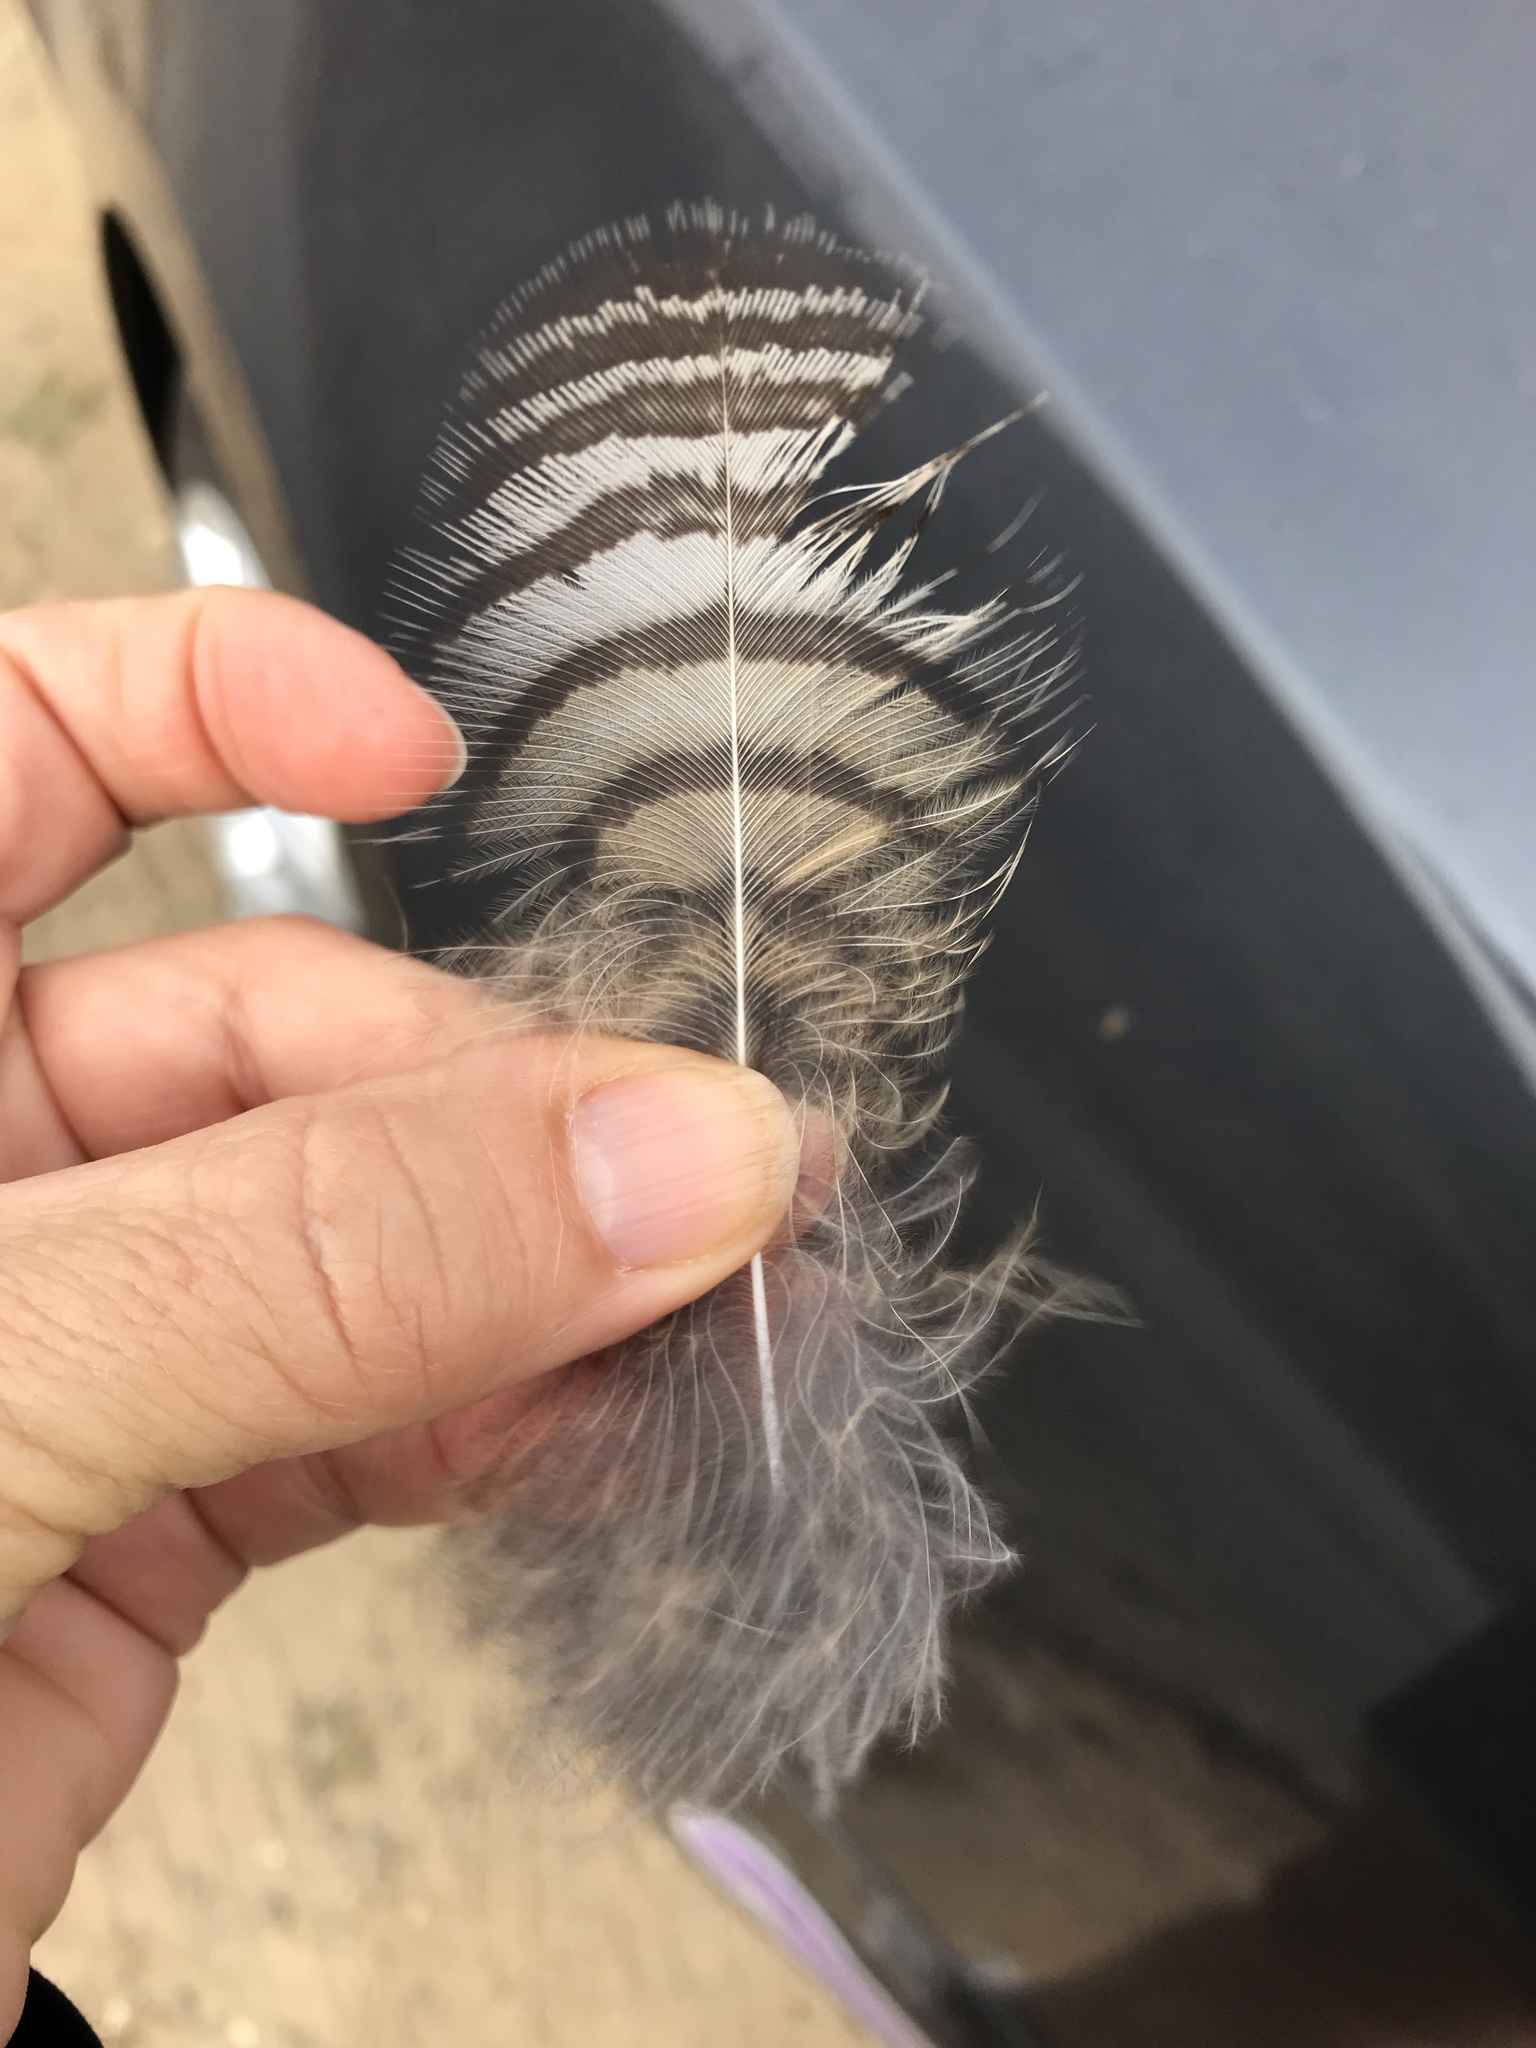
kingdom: Animalia
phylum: Chordata
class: Aves
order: Strigiformes
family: Strigidae
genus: Bubo
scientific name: Bubo virginianus
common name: Great horned owl
